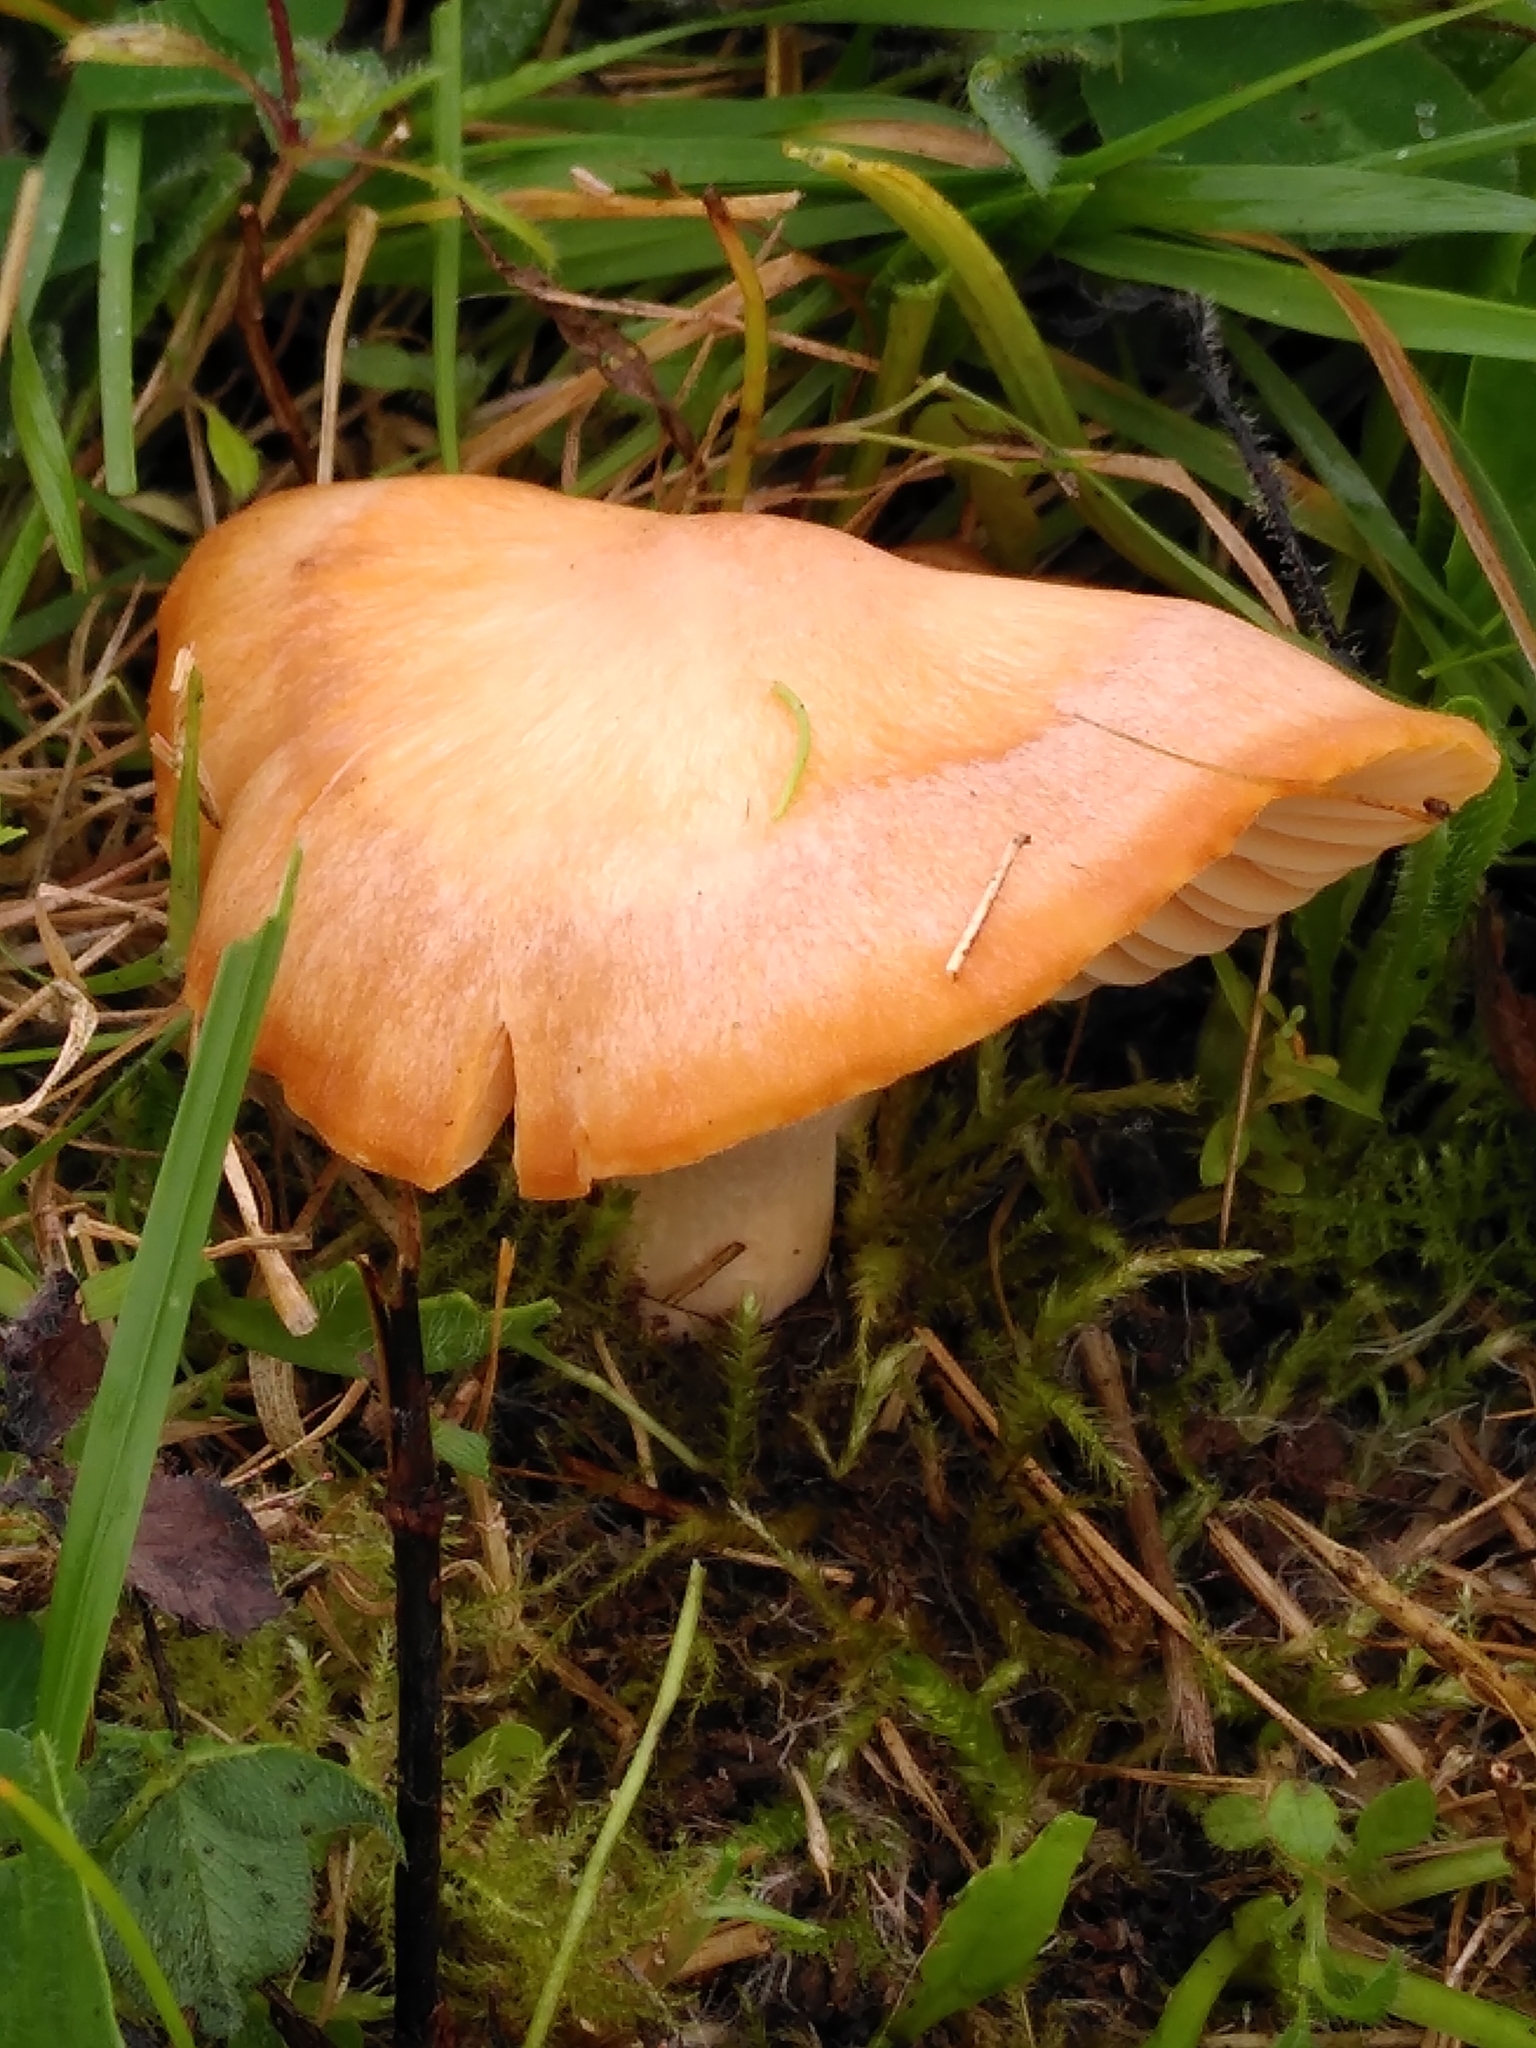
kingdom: Fungi
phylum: Basidiomycota
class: Agaricomycetes
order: Agaricales
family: Hygrophoraceae
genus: Cuphophyllus
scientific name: Cuphophyllus pratensis
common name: Meadow waxcap
